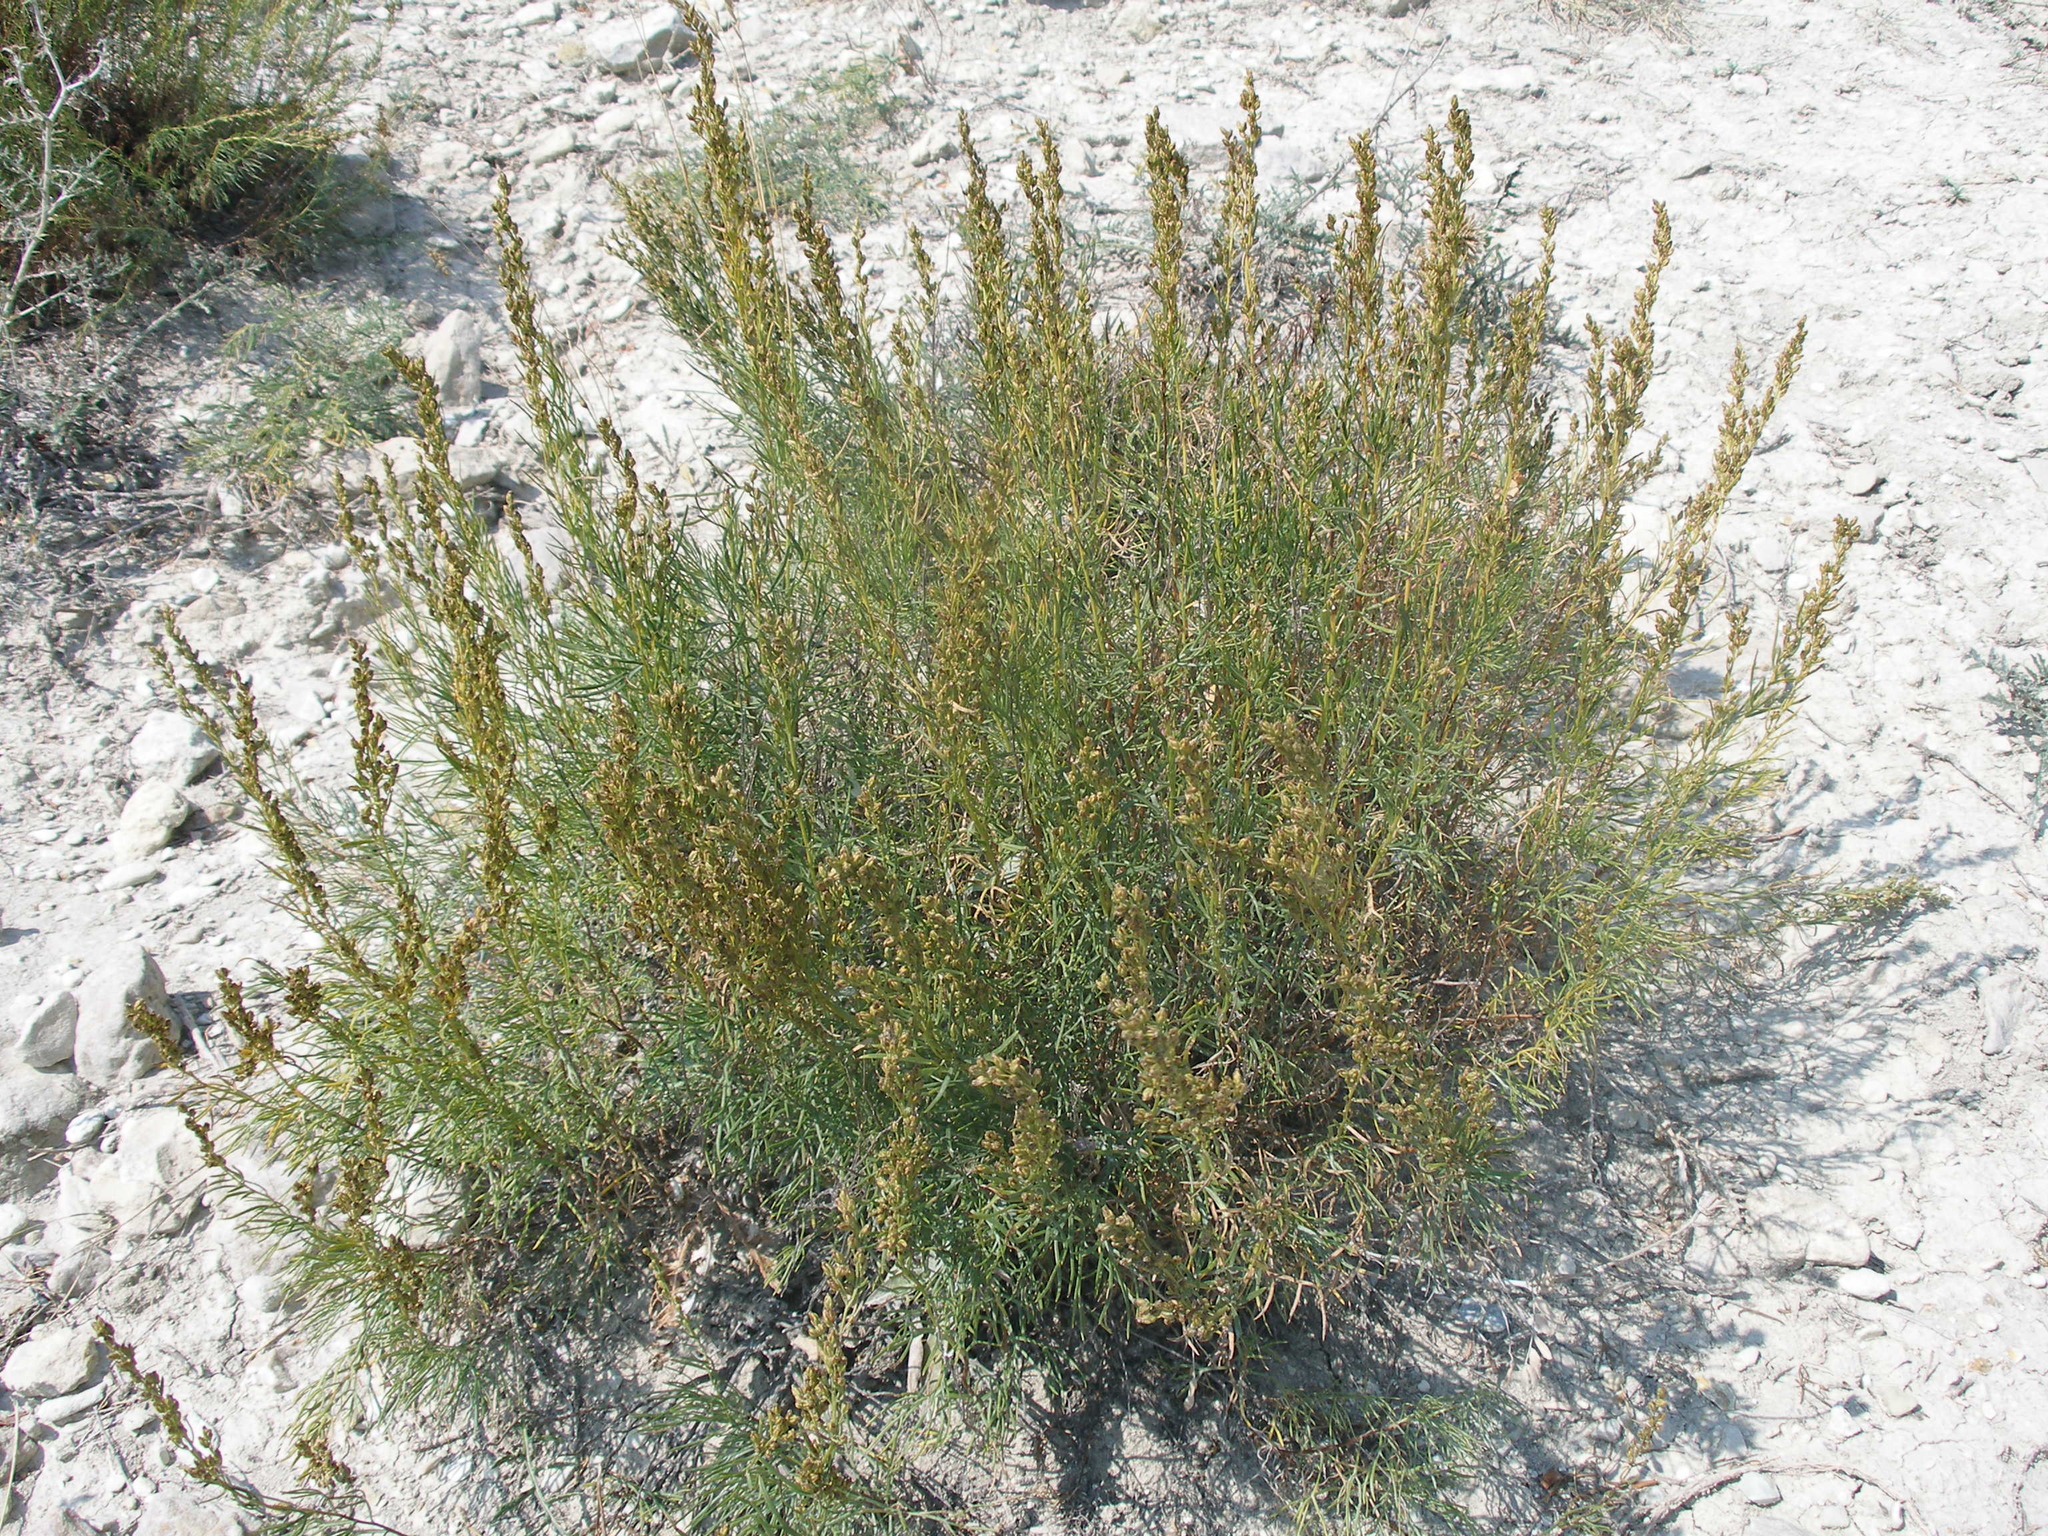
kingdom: Plantae
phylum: Tracheophyta
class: Magnoliopsida
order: Asterales
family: Asteraceae
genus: Artemisia
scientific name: Artemisia salsoloides
